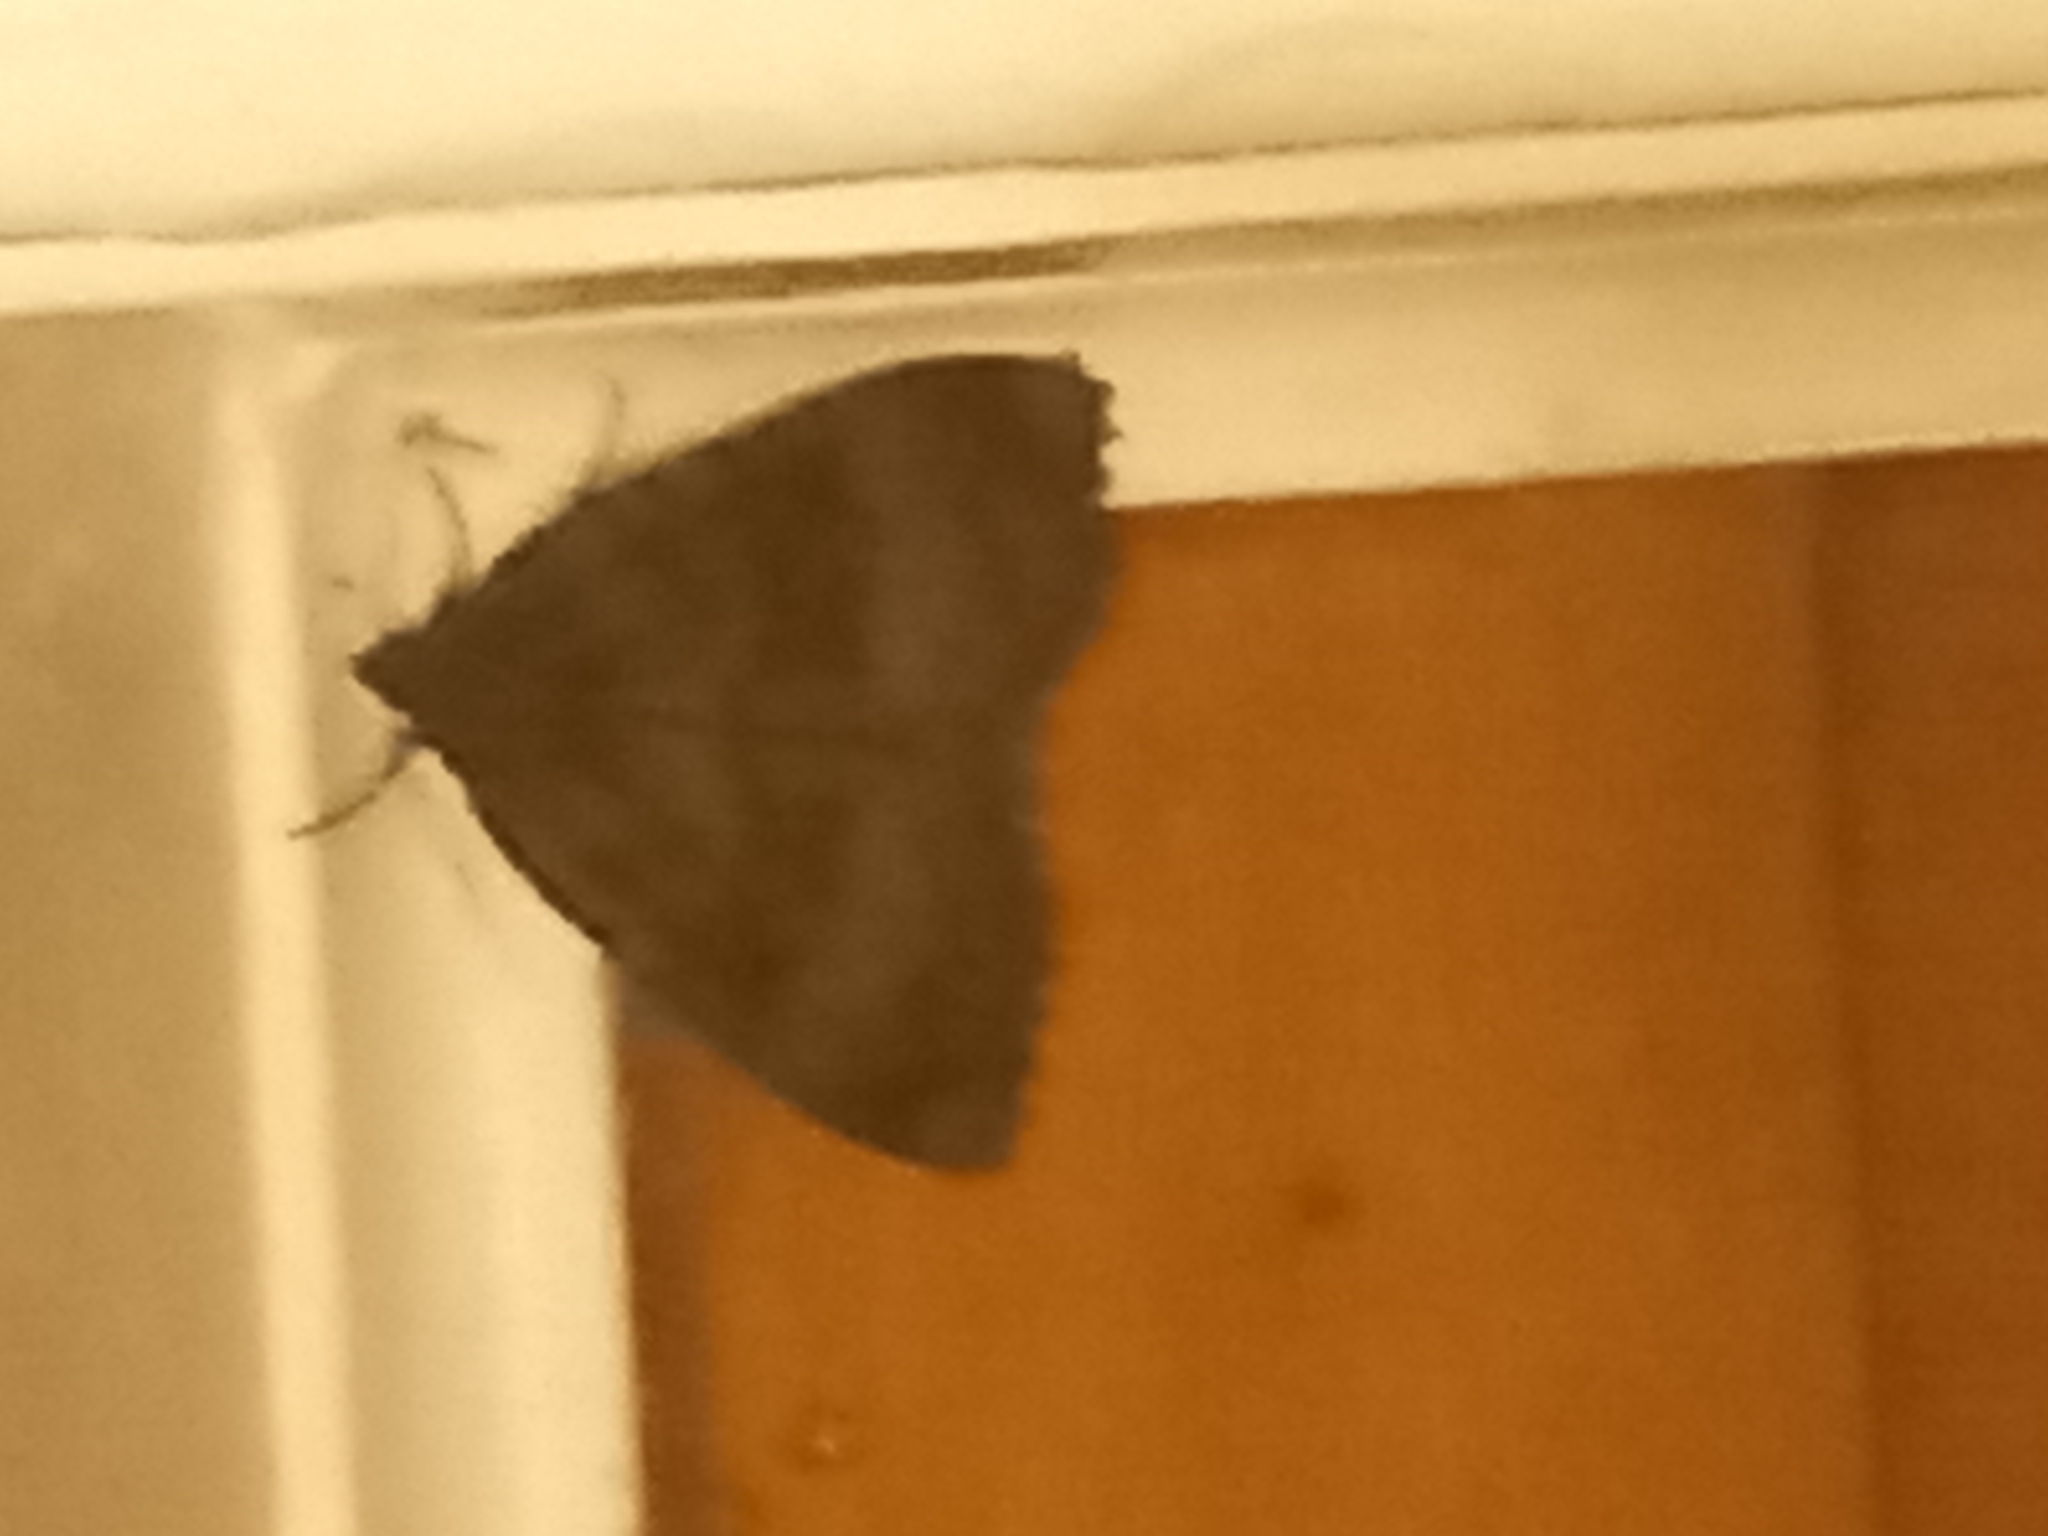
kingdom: Animalia
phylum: Arthropoda
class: Insecta
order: Lepidoptera
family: Noctuidae
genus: Mormo
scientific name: Mormo maura
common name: Old lady
